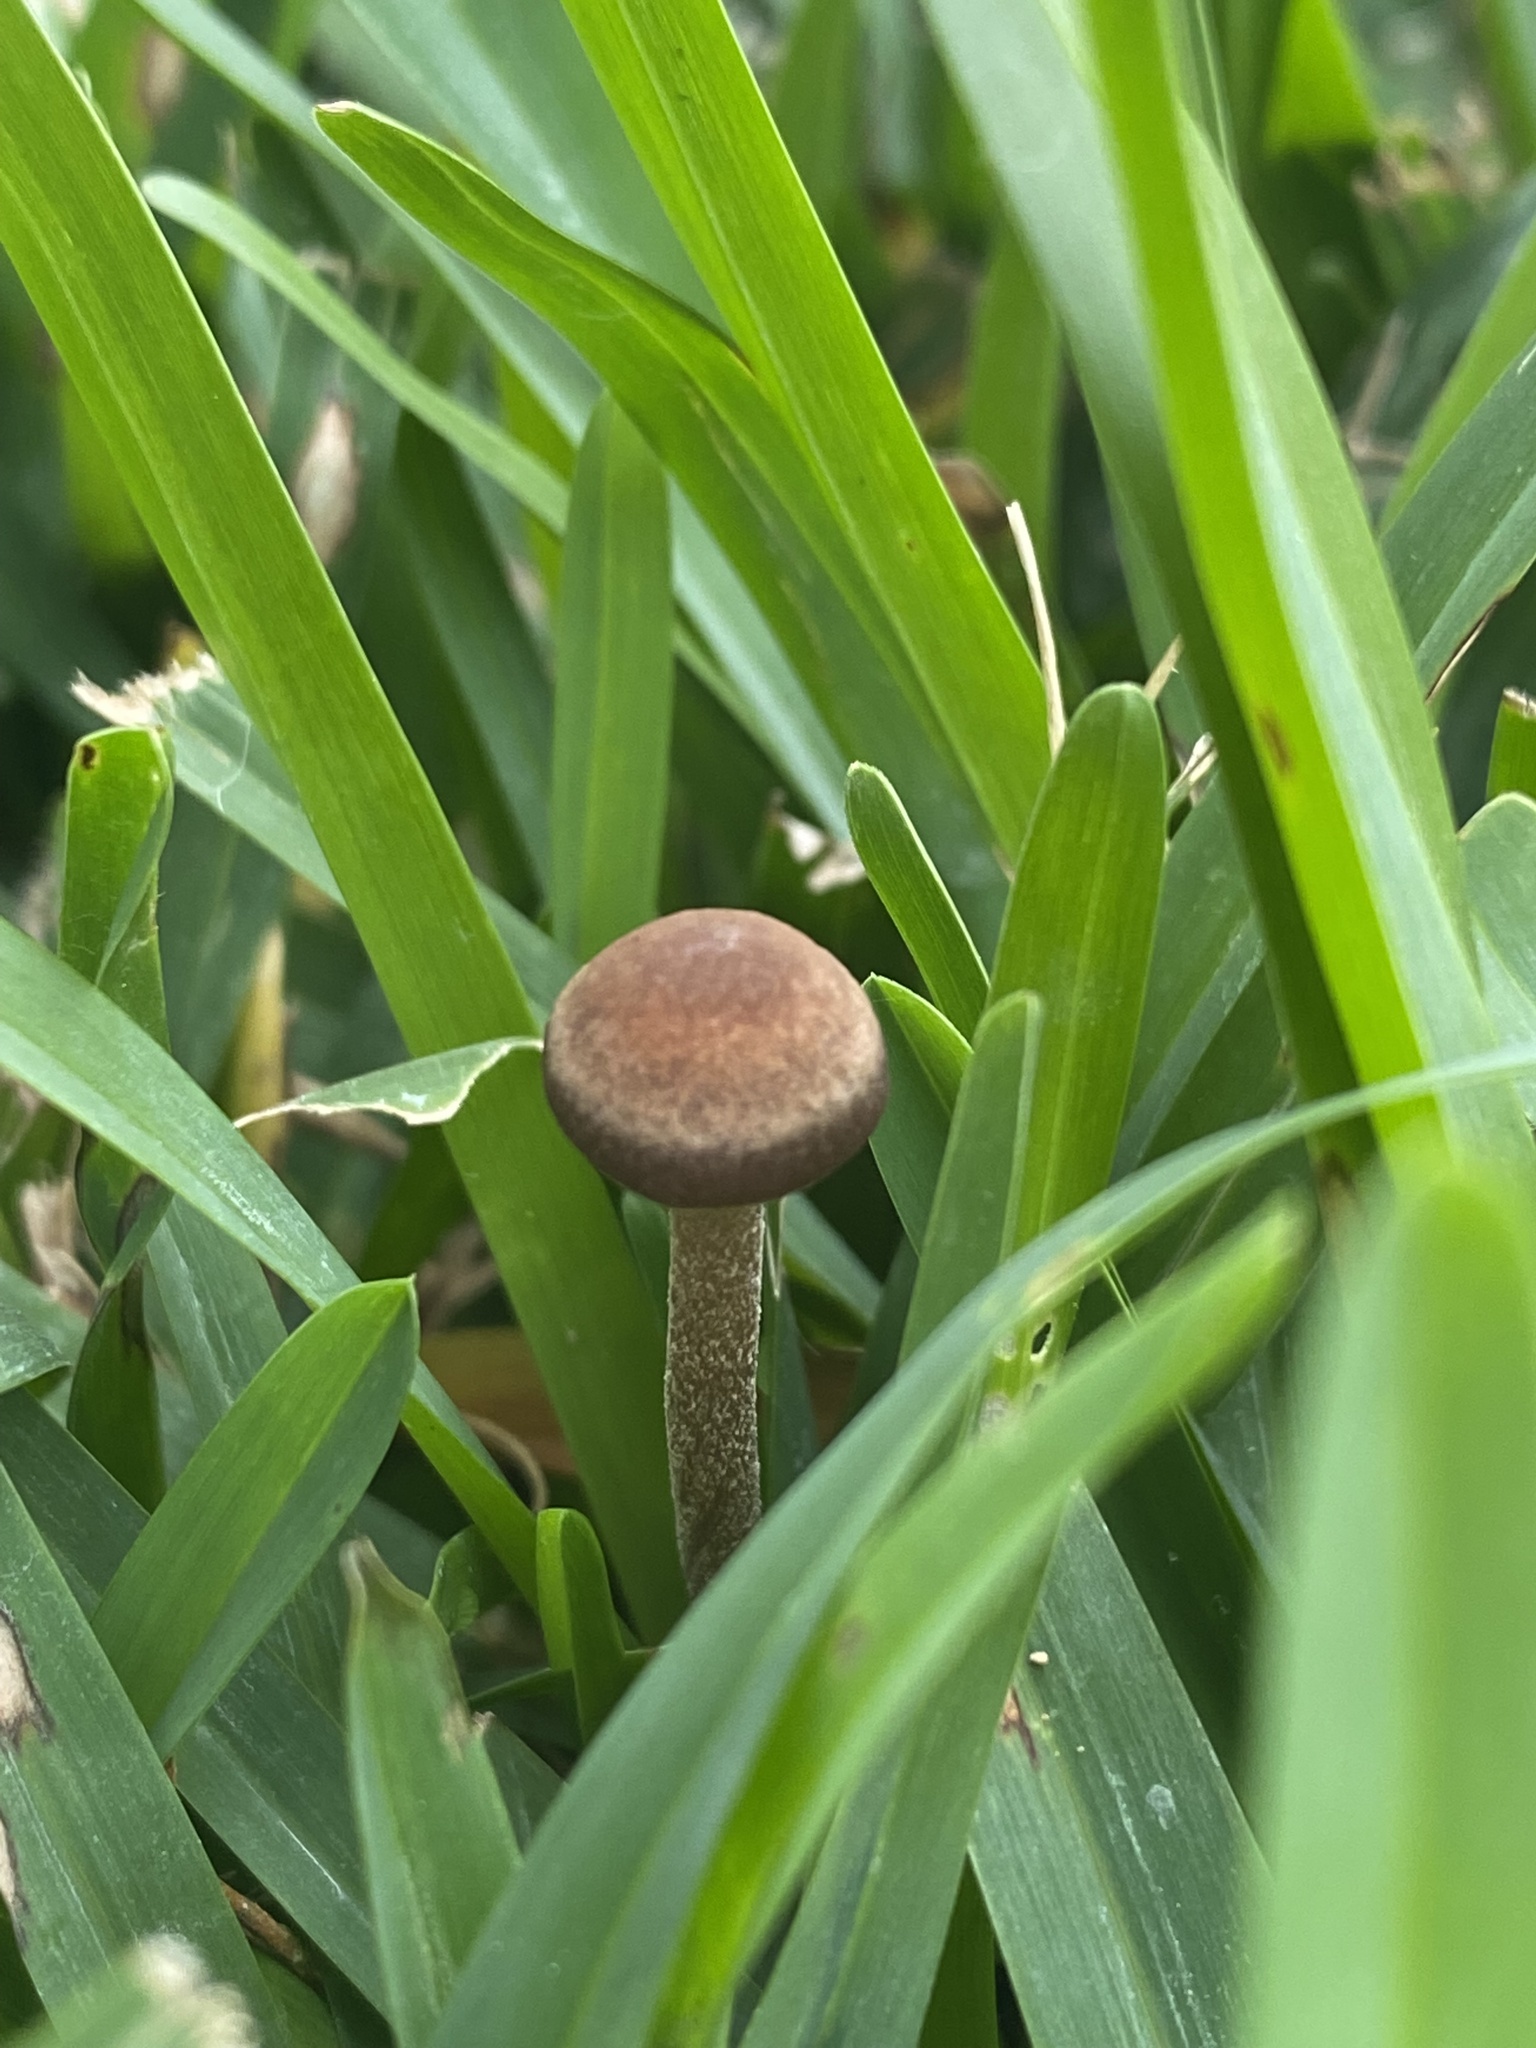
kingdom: Fungi
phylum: Basidiomycota
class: Agaricomycetes
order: Agaricales
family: Bolbitiaceae
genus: Panaeolus
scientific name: Panaeolus cinctulus
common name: Banded mottlegill
